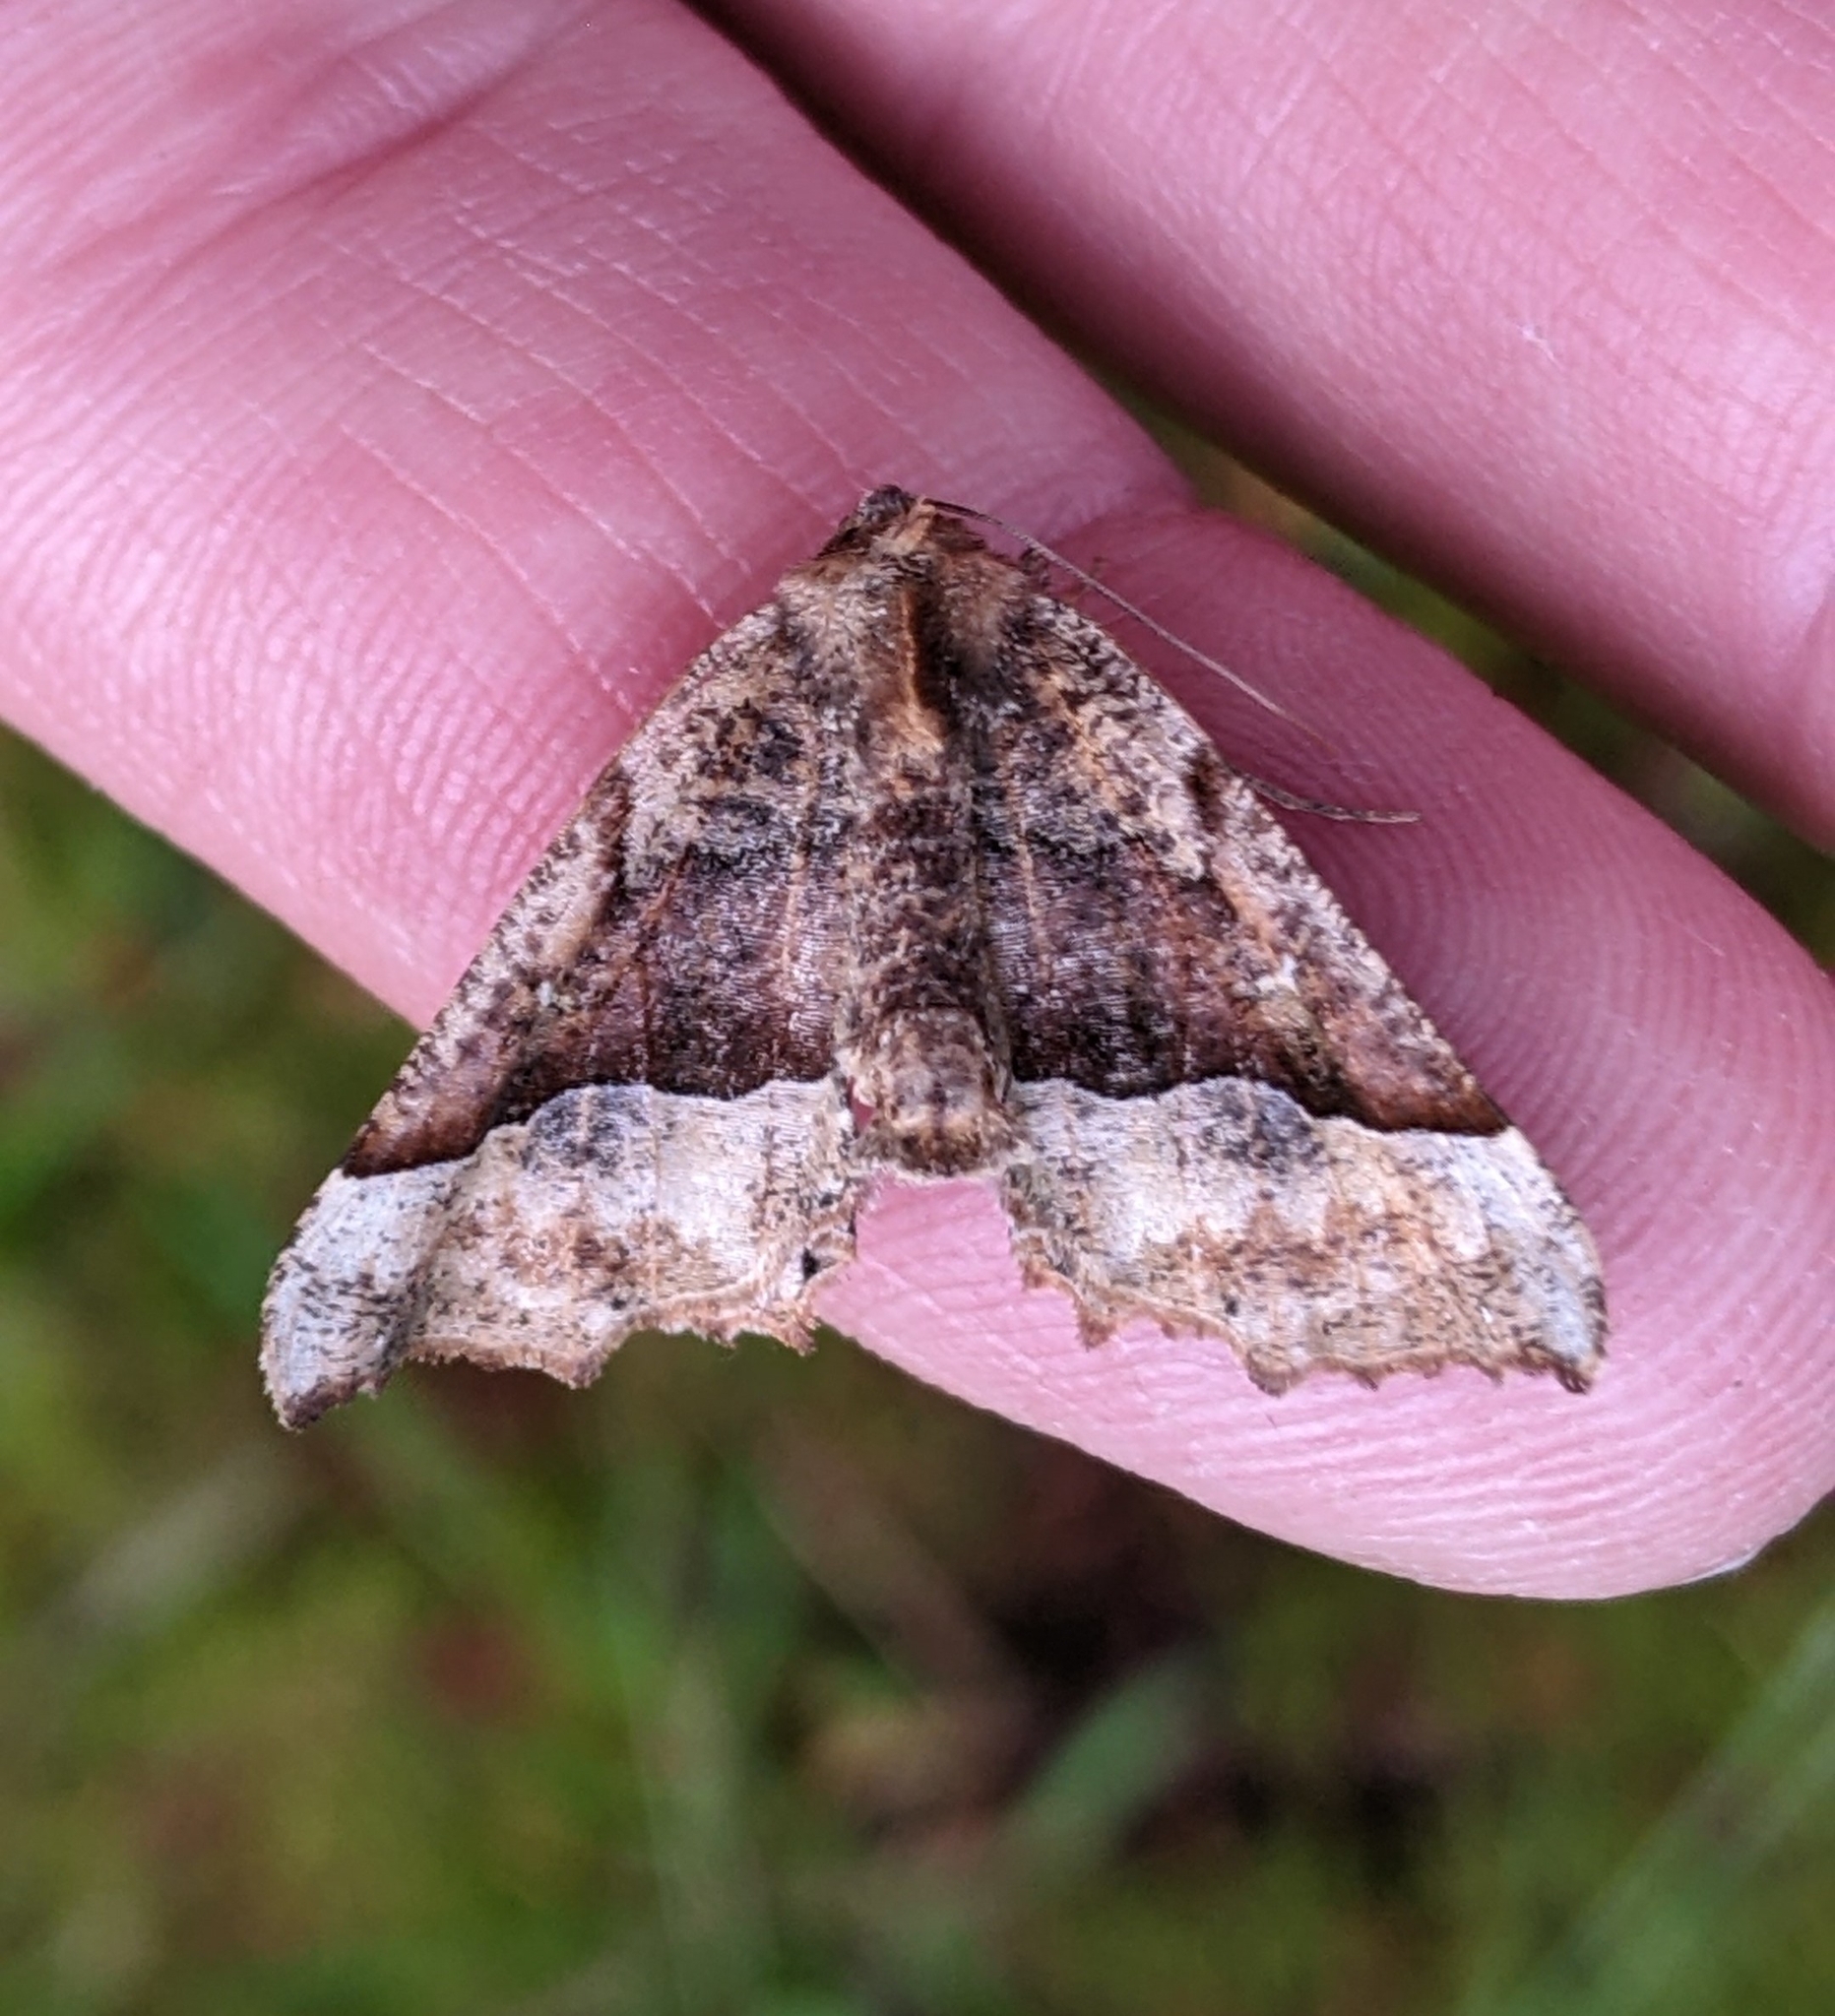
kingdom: Animalia
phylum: Arthropoda
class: Insecta
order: Lepidoptera
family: Geometridae
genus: Pero
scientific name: Pero morrisonaria
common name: Morrison's pero
